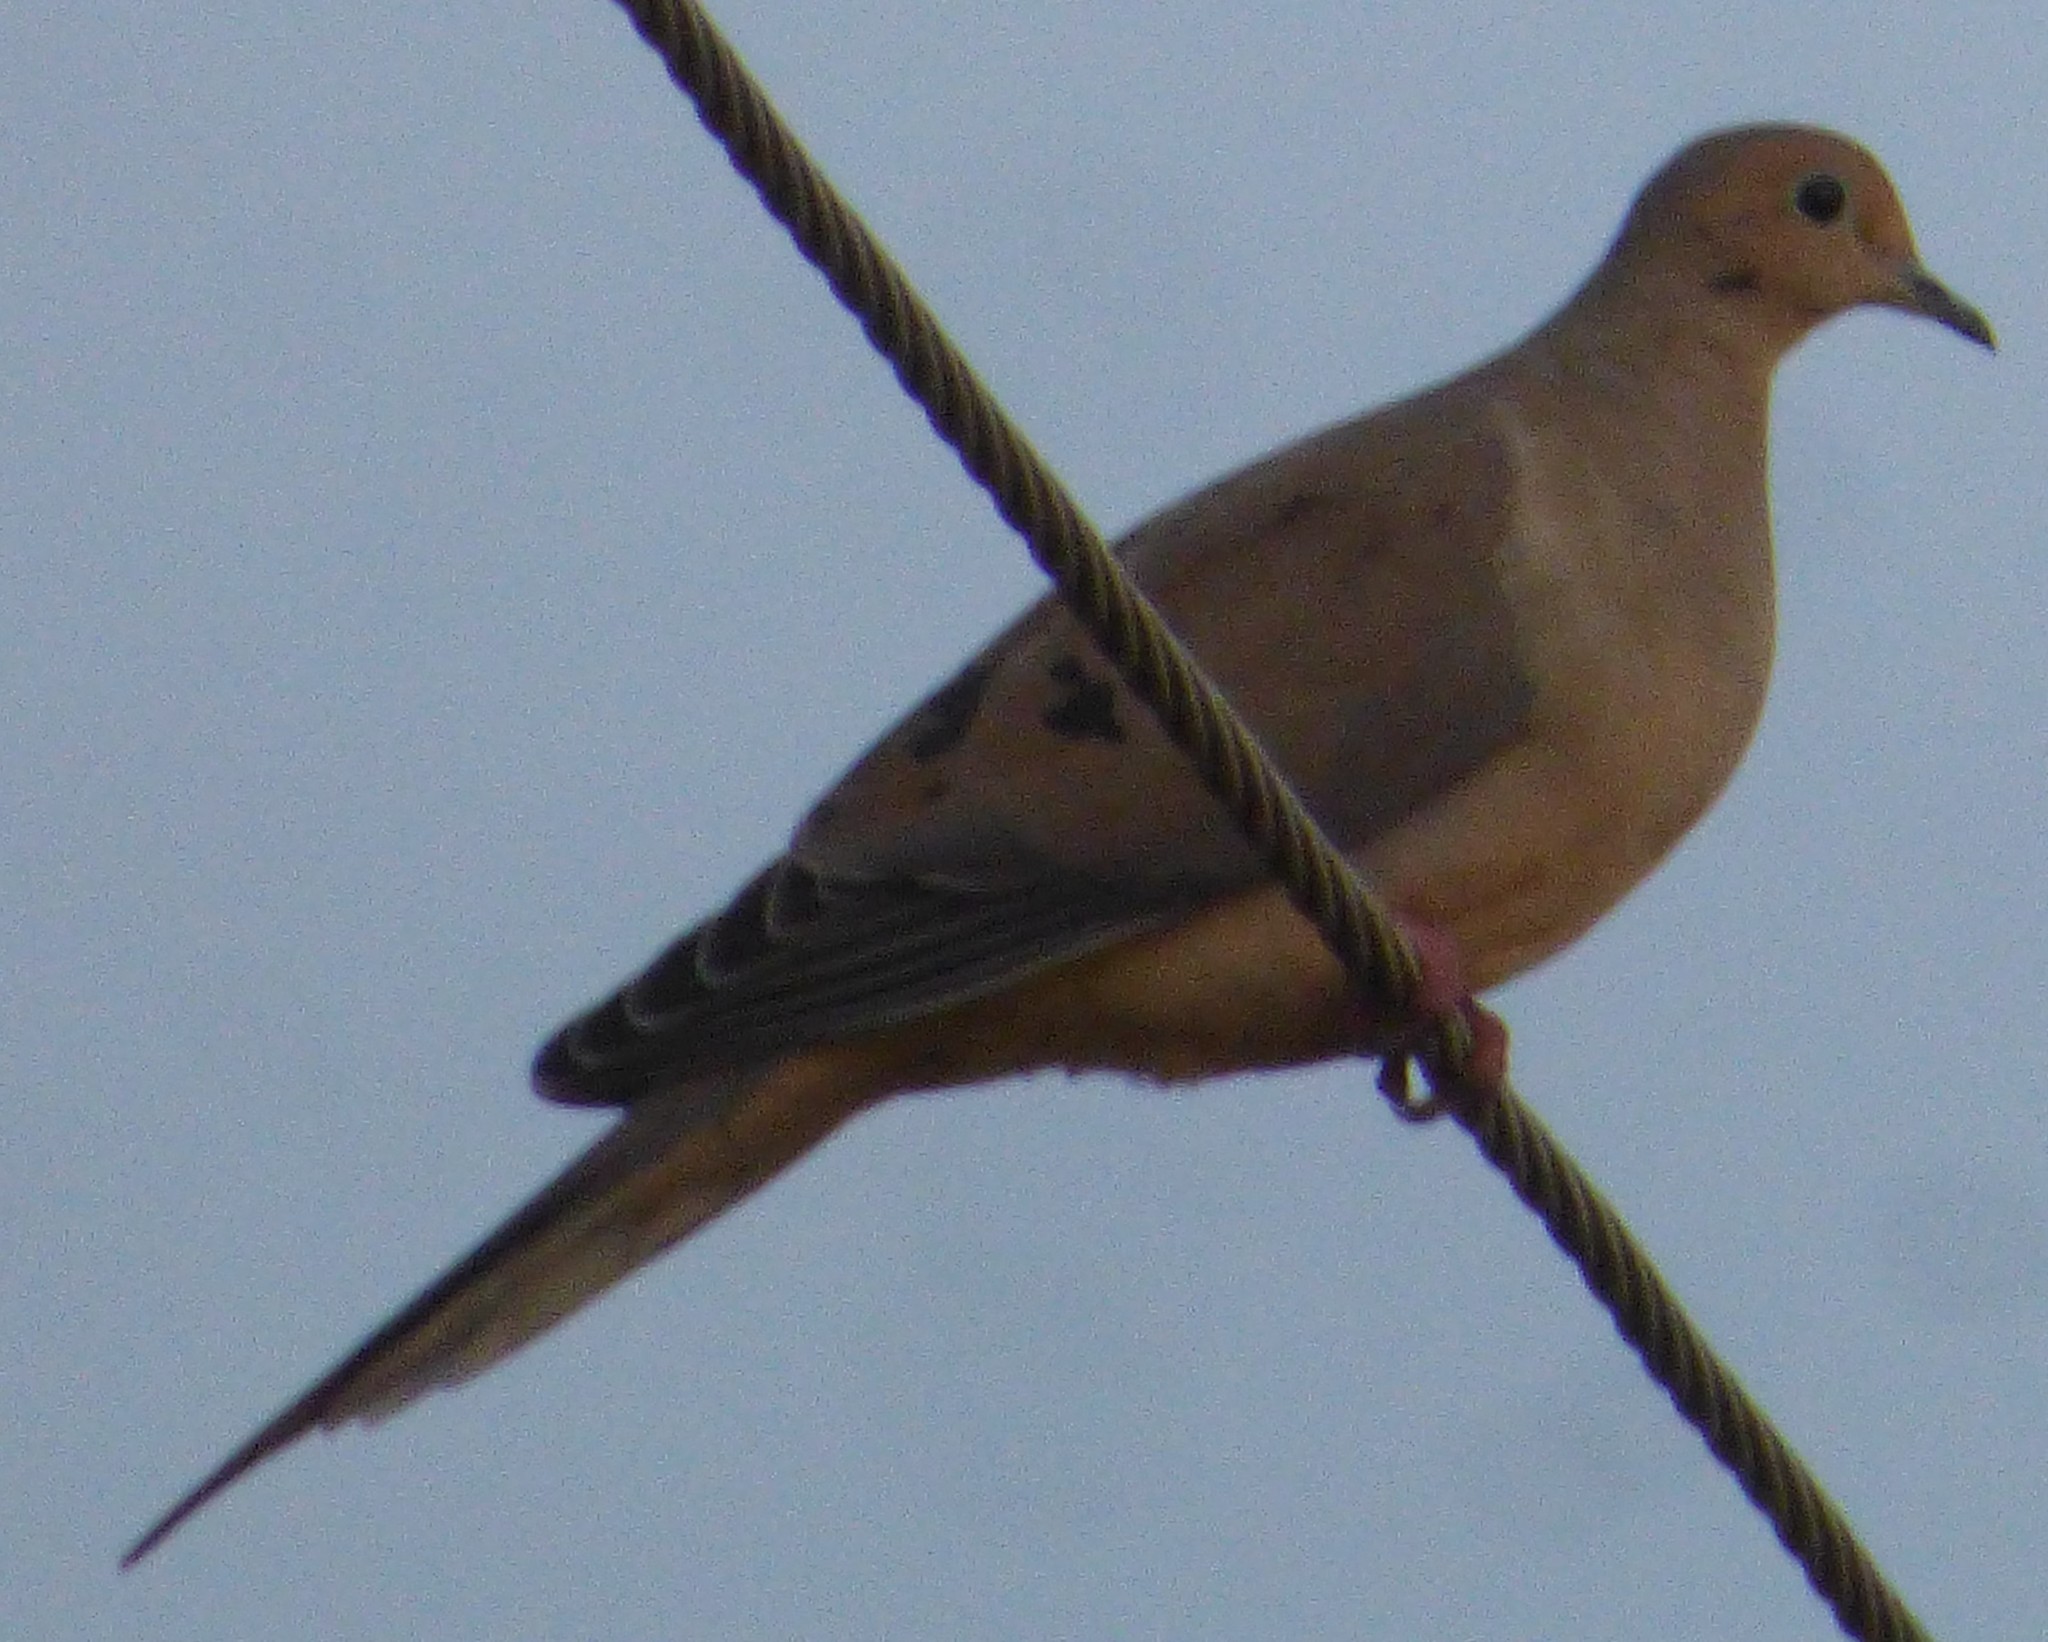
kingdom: Animalia
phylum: Chordata
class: Aves
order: Columbiformes
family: Columbidae
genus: Zenaida
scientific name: Zenaida macroura
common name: Mourning dove
